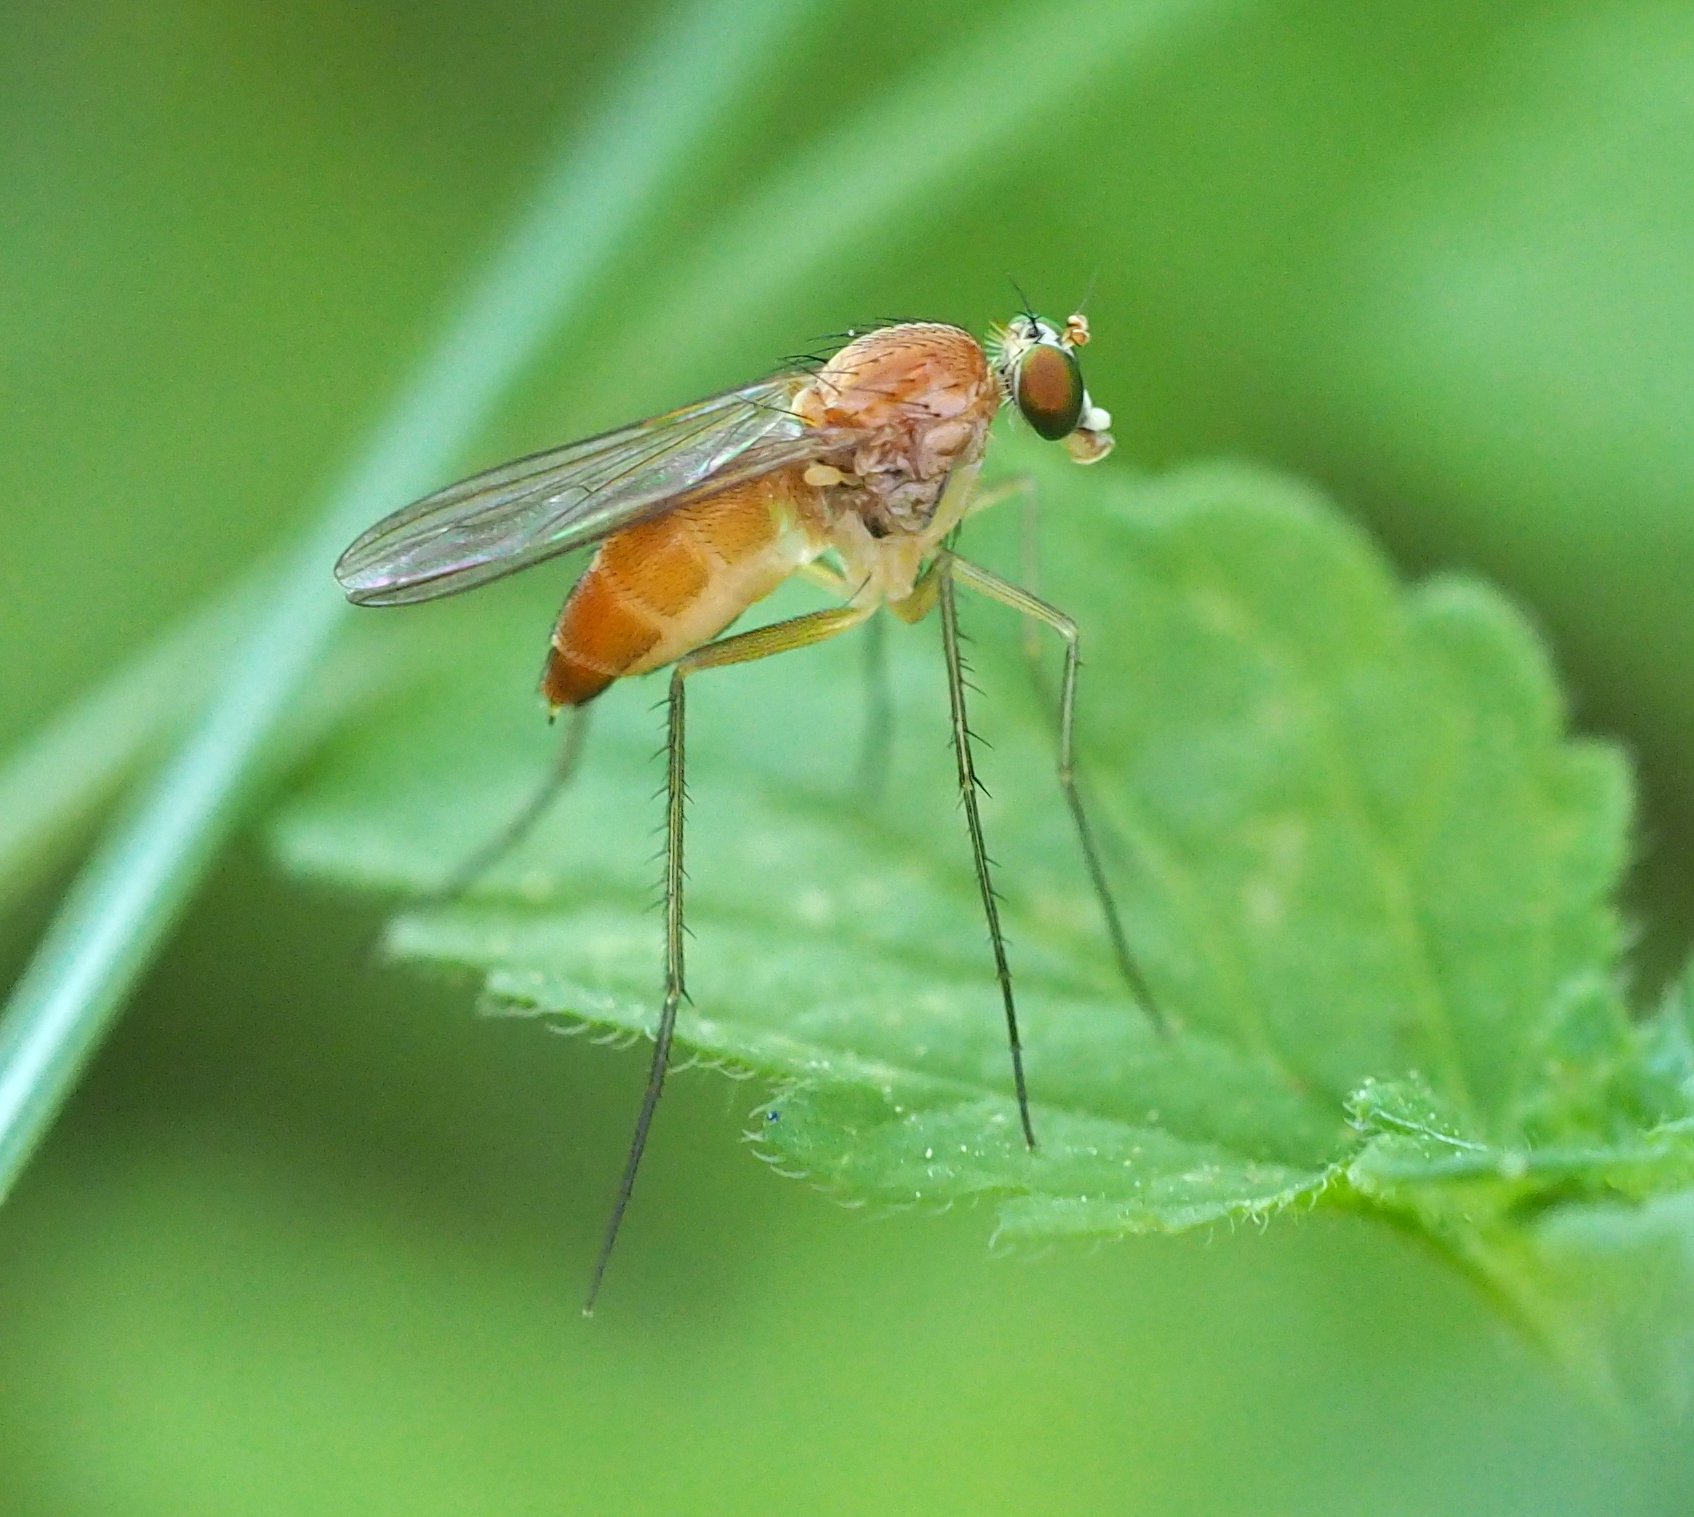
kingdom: Animalia
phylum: Arthropoda
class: Insecta
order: Diptera
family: Dolichopodidae
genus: Neurigona
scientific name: Neurigona pallida
